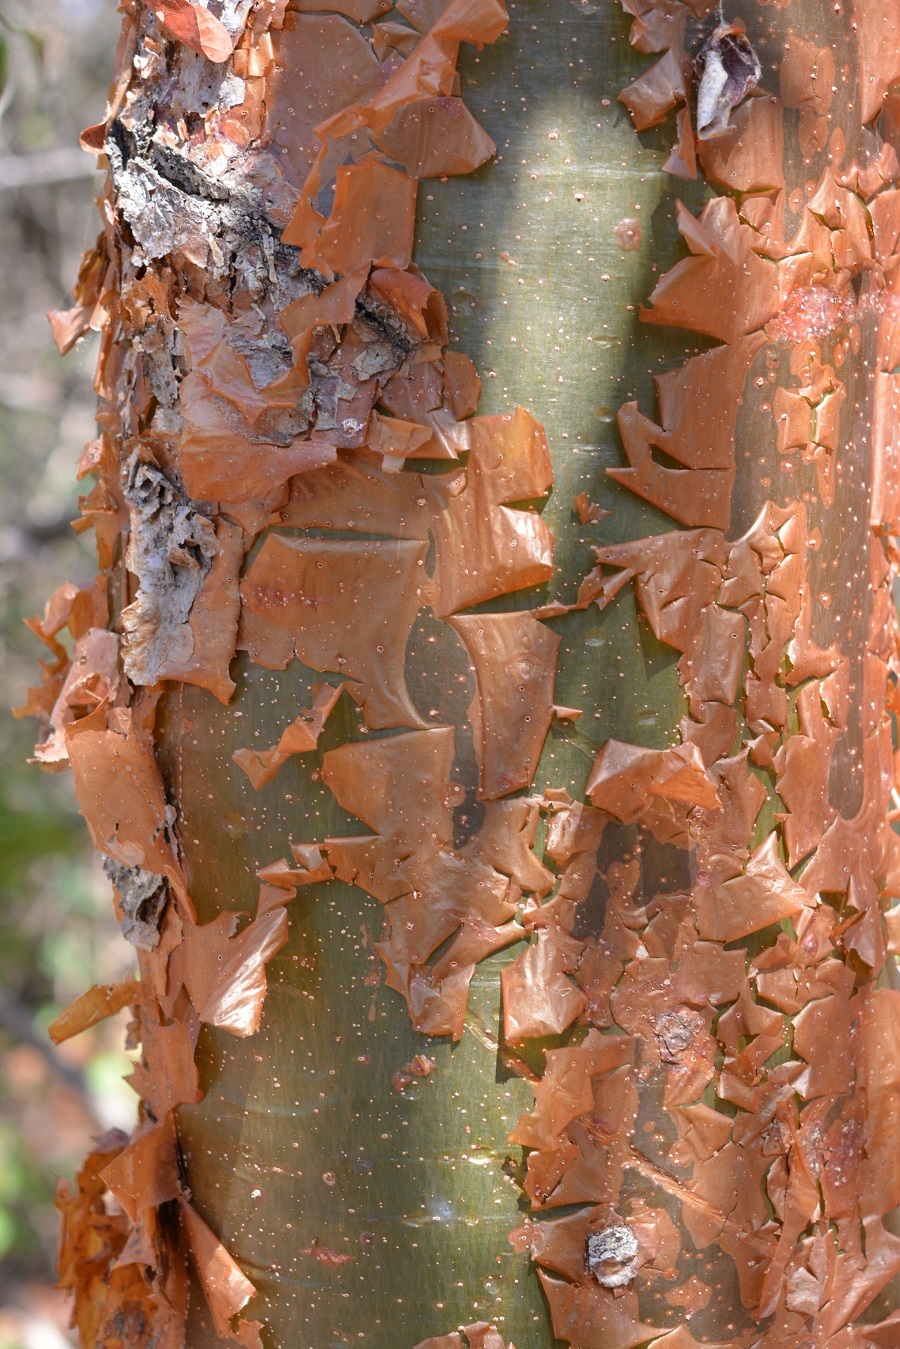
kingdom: Plantae
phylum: Tracheophyta
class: Magnoliopsida
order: Sapindales
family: Burseraceae
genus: Bursera
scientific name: Bursera simaruba
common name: Turpentine tree
